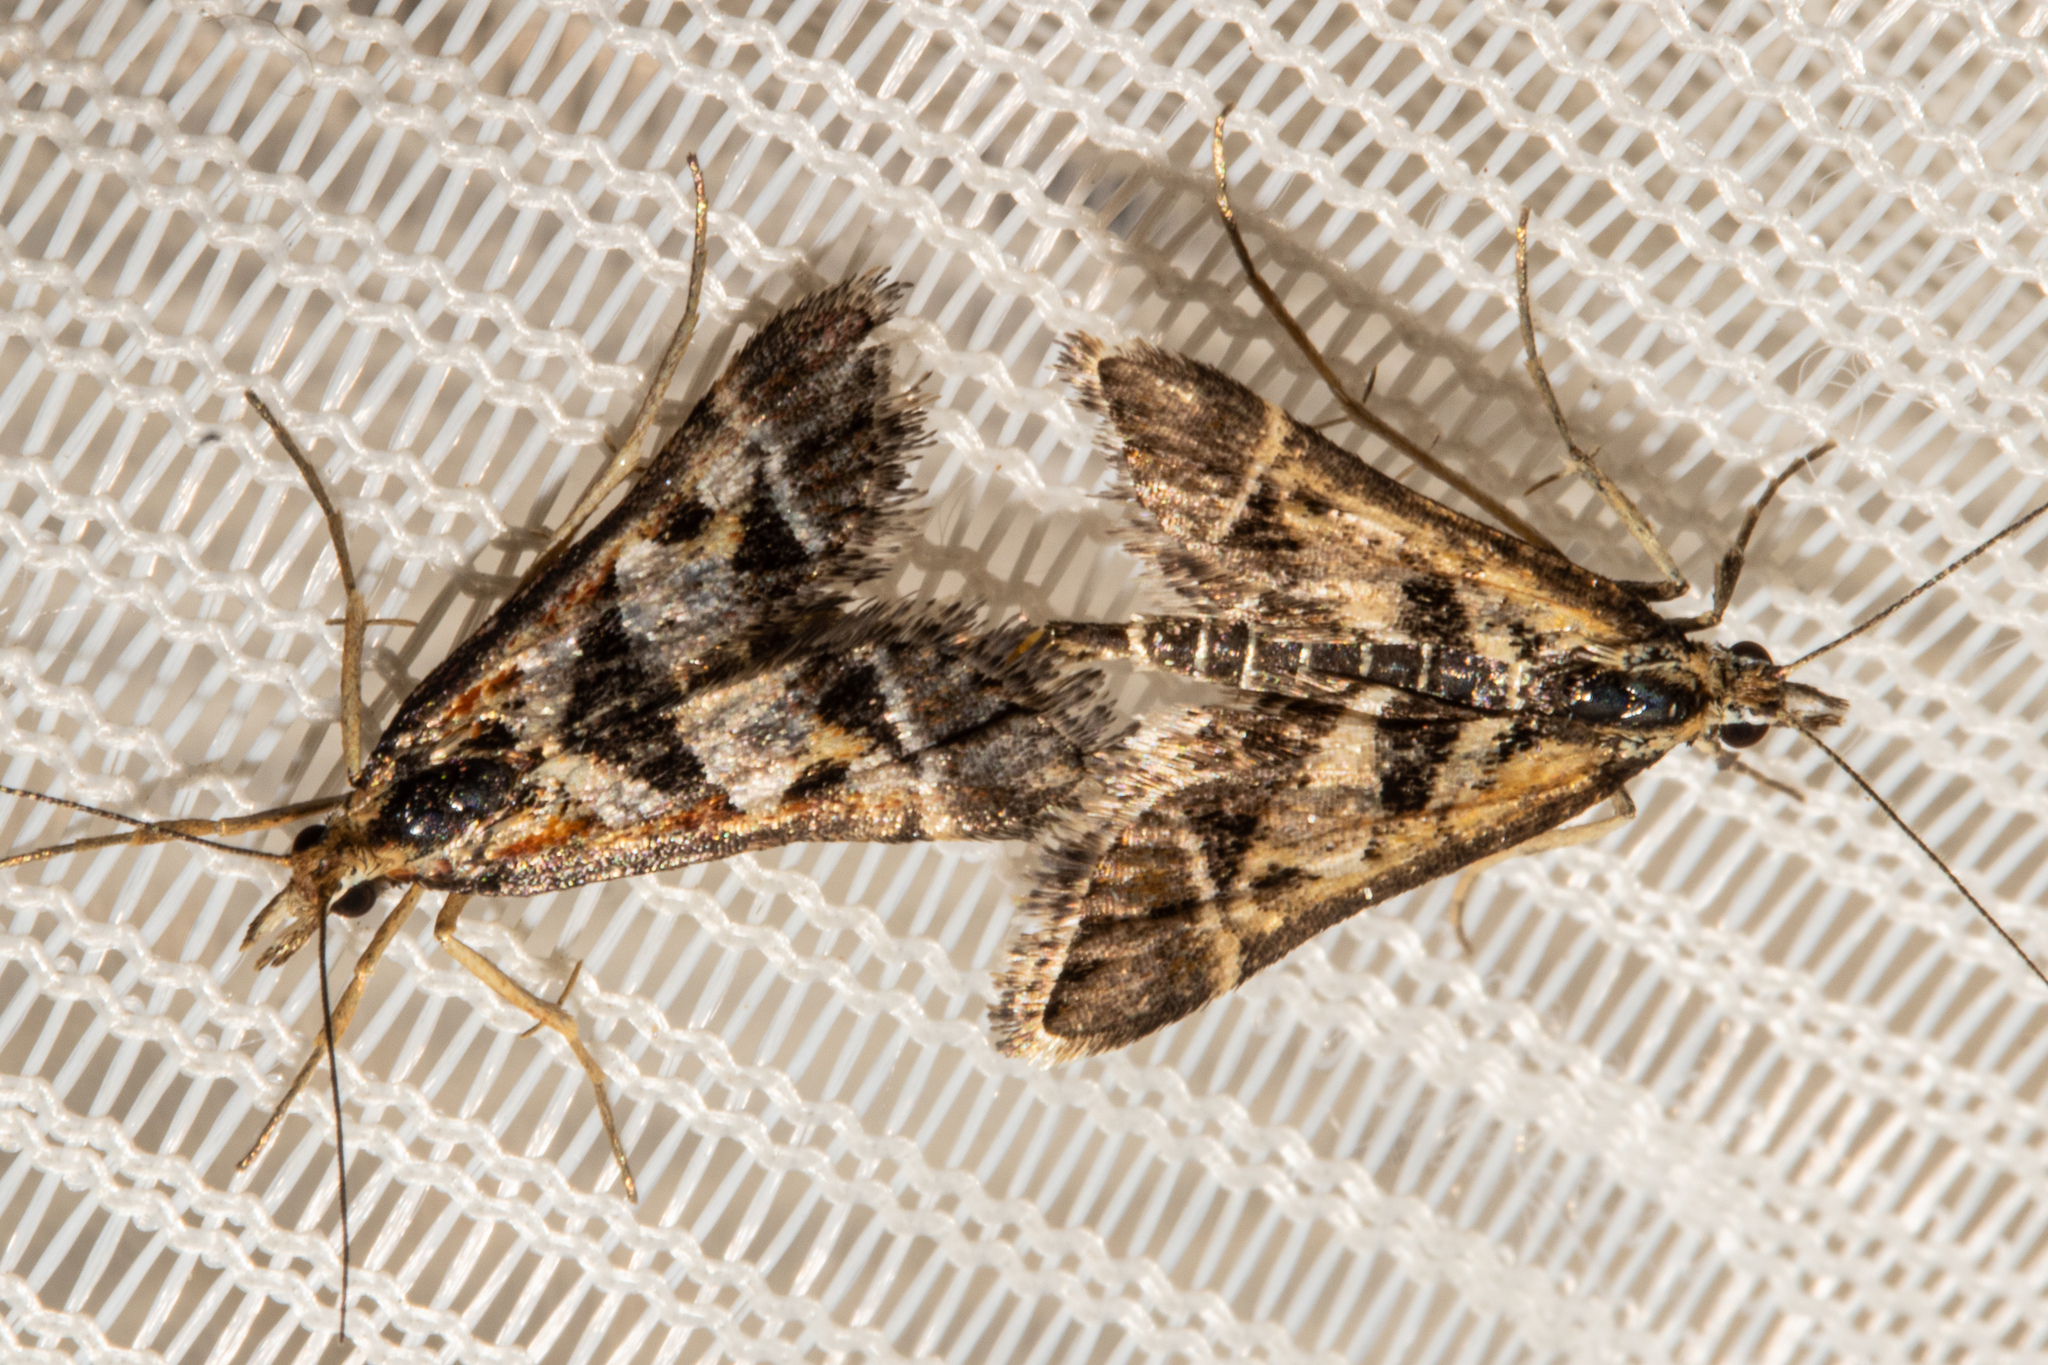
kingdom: Animalia
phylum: Arthropoda
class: Insecta
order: Lepidoptera
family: Crambidae
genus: Diasemia
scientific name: Diasemia grammalis
